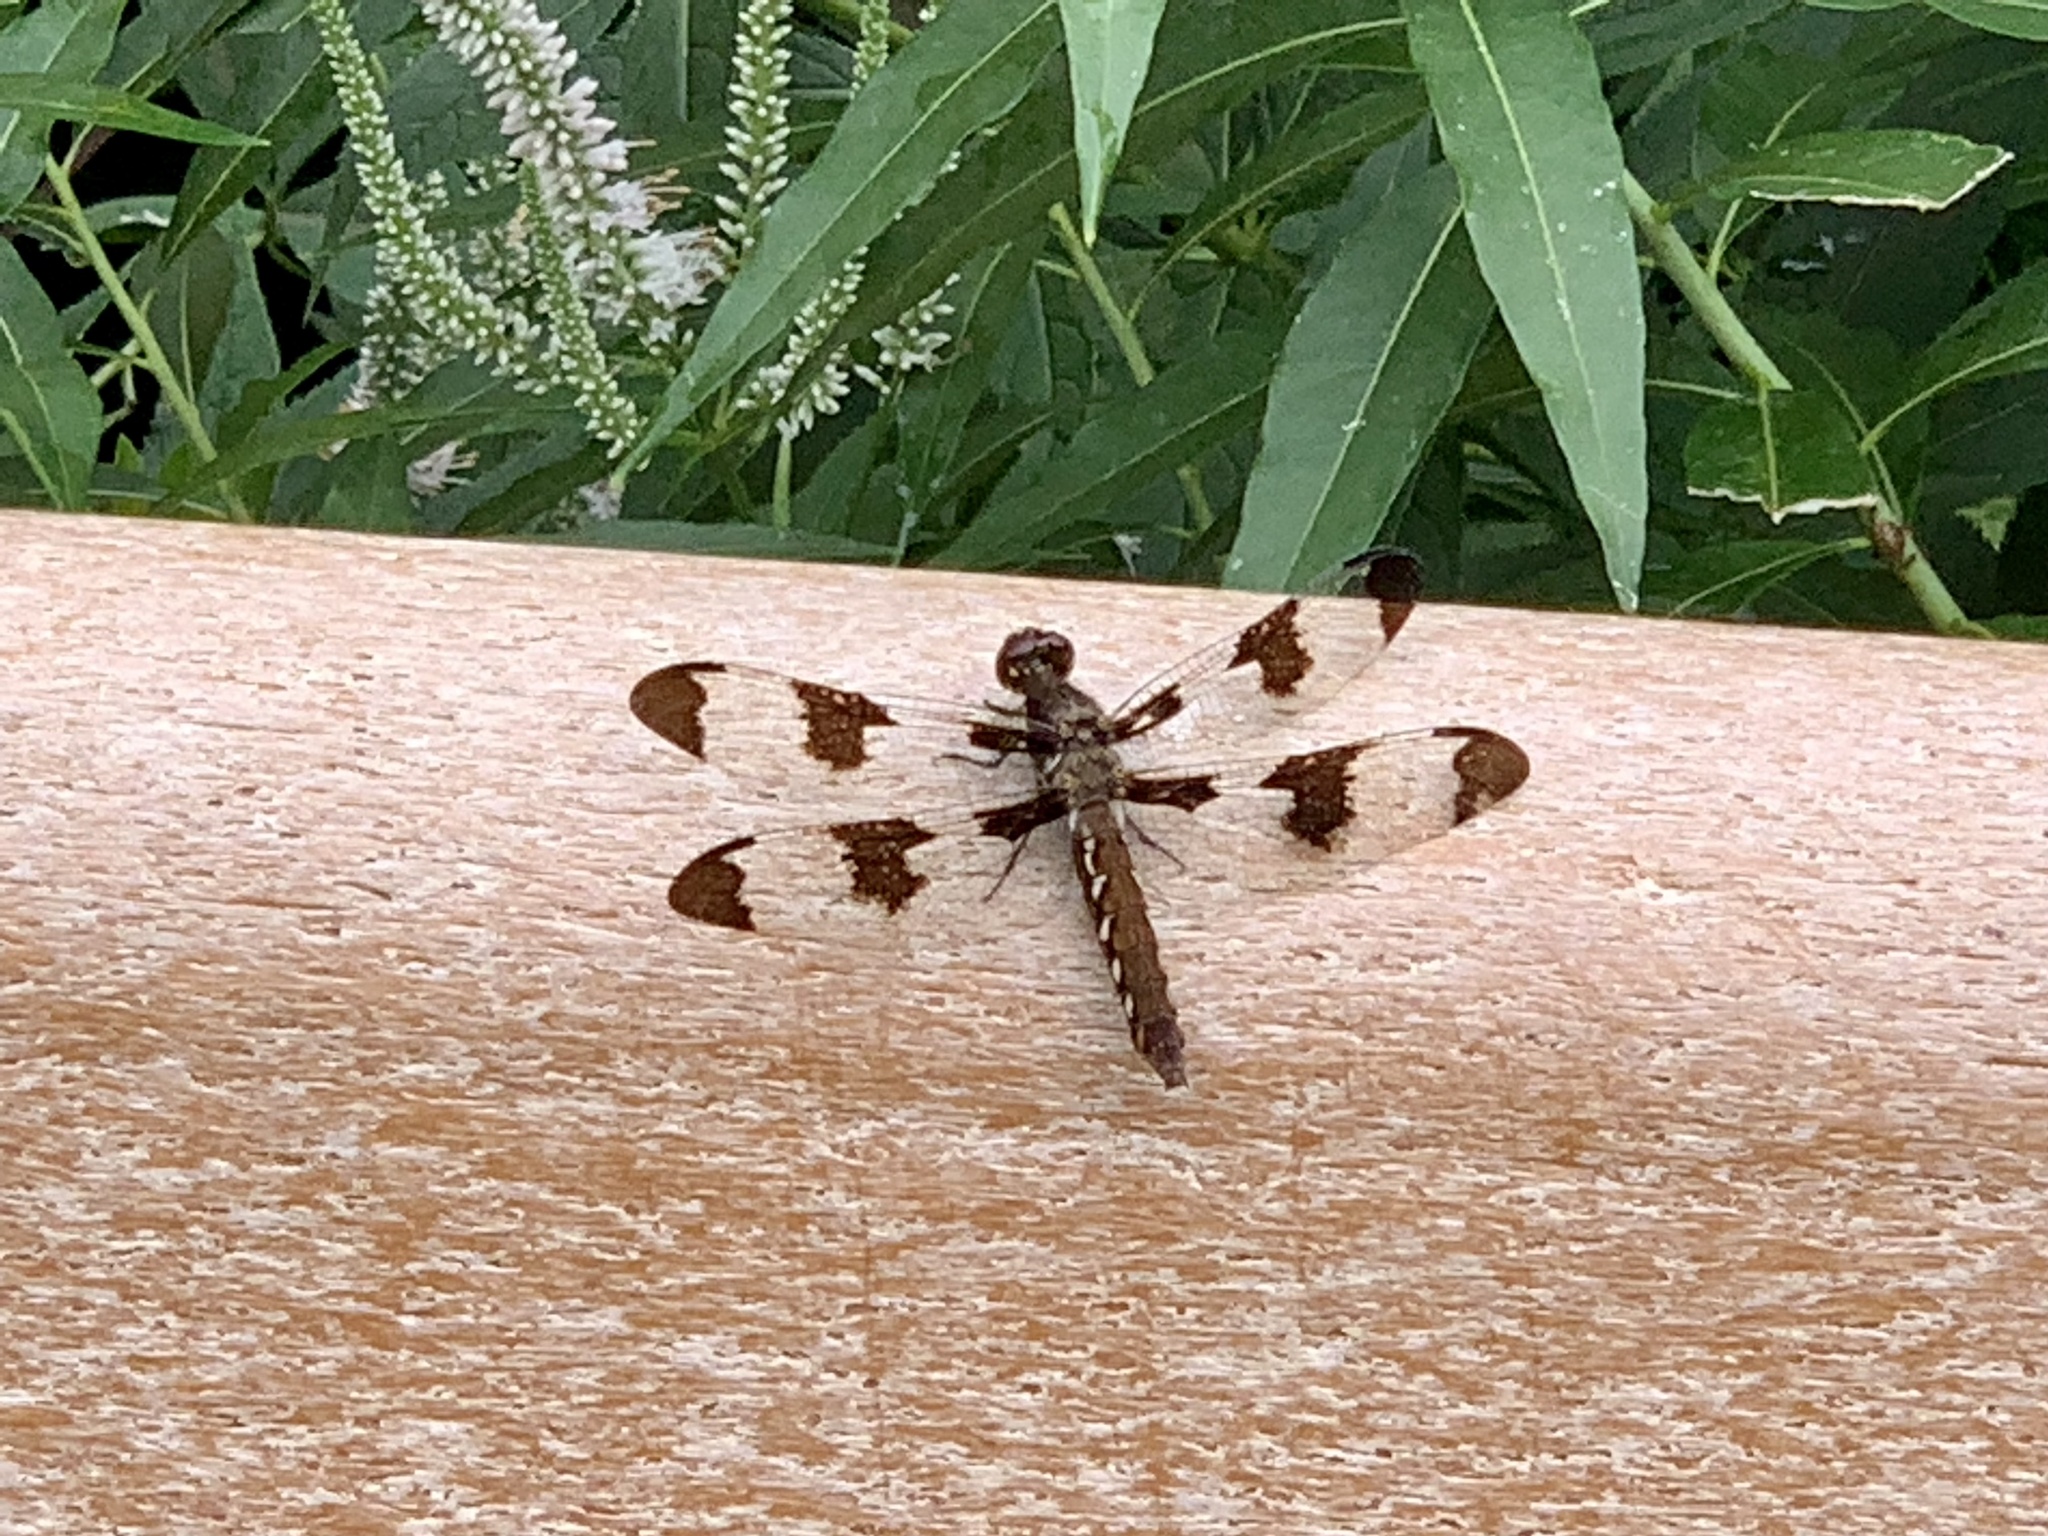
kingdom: Animalia
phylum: Arthropoda
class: Insecta
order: Odonata
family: Libellulidae
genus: Plathemis
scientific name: Plathemis lydia
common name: Common whitetail
